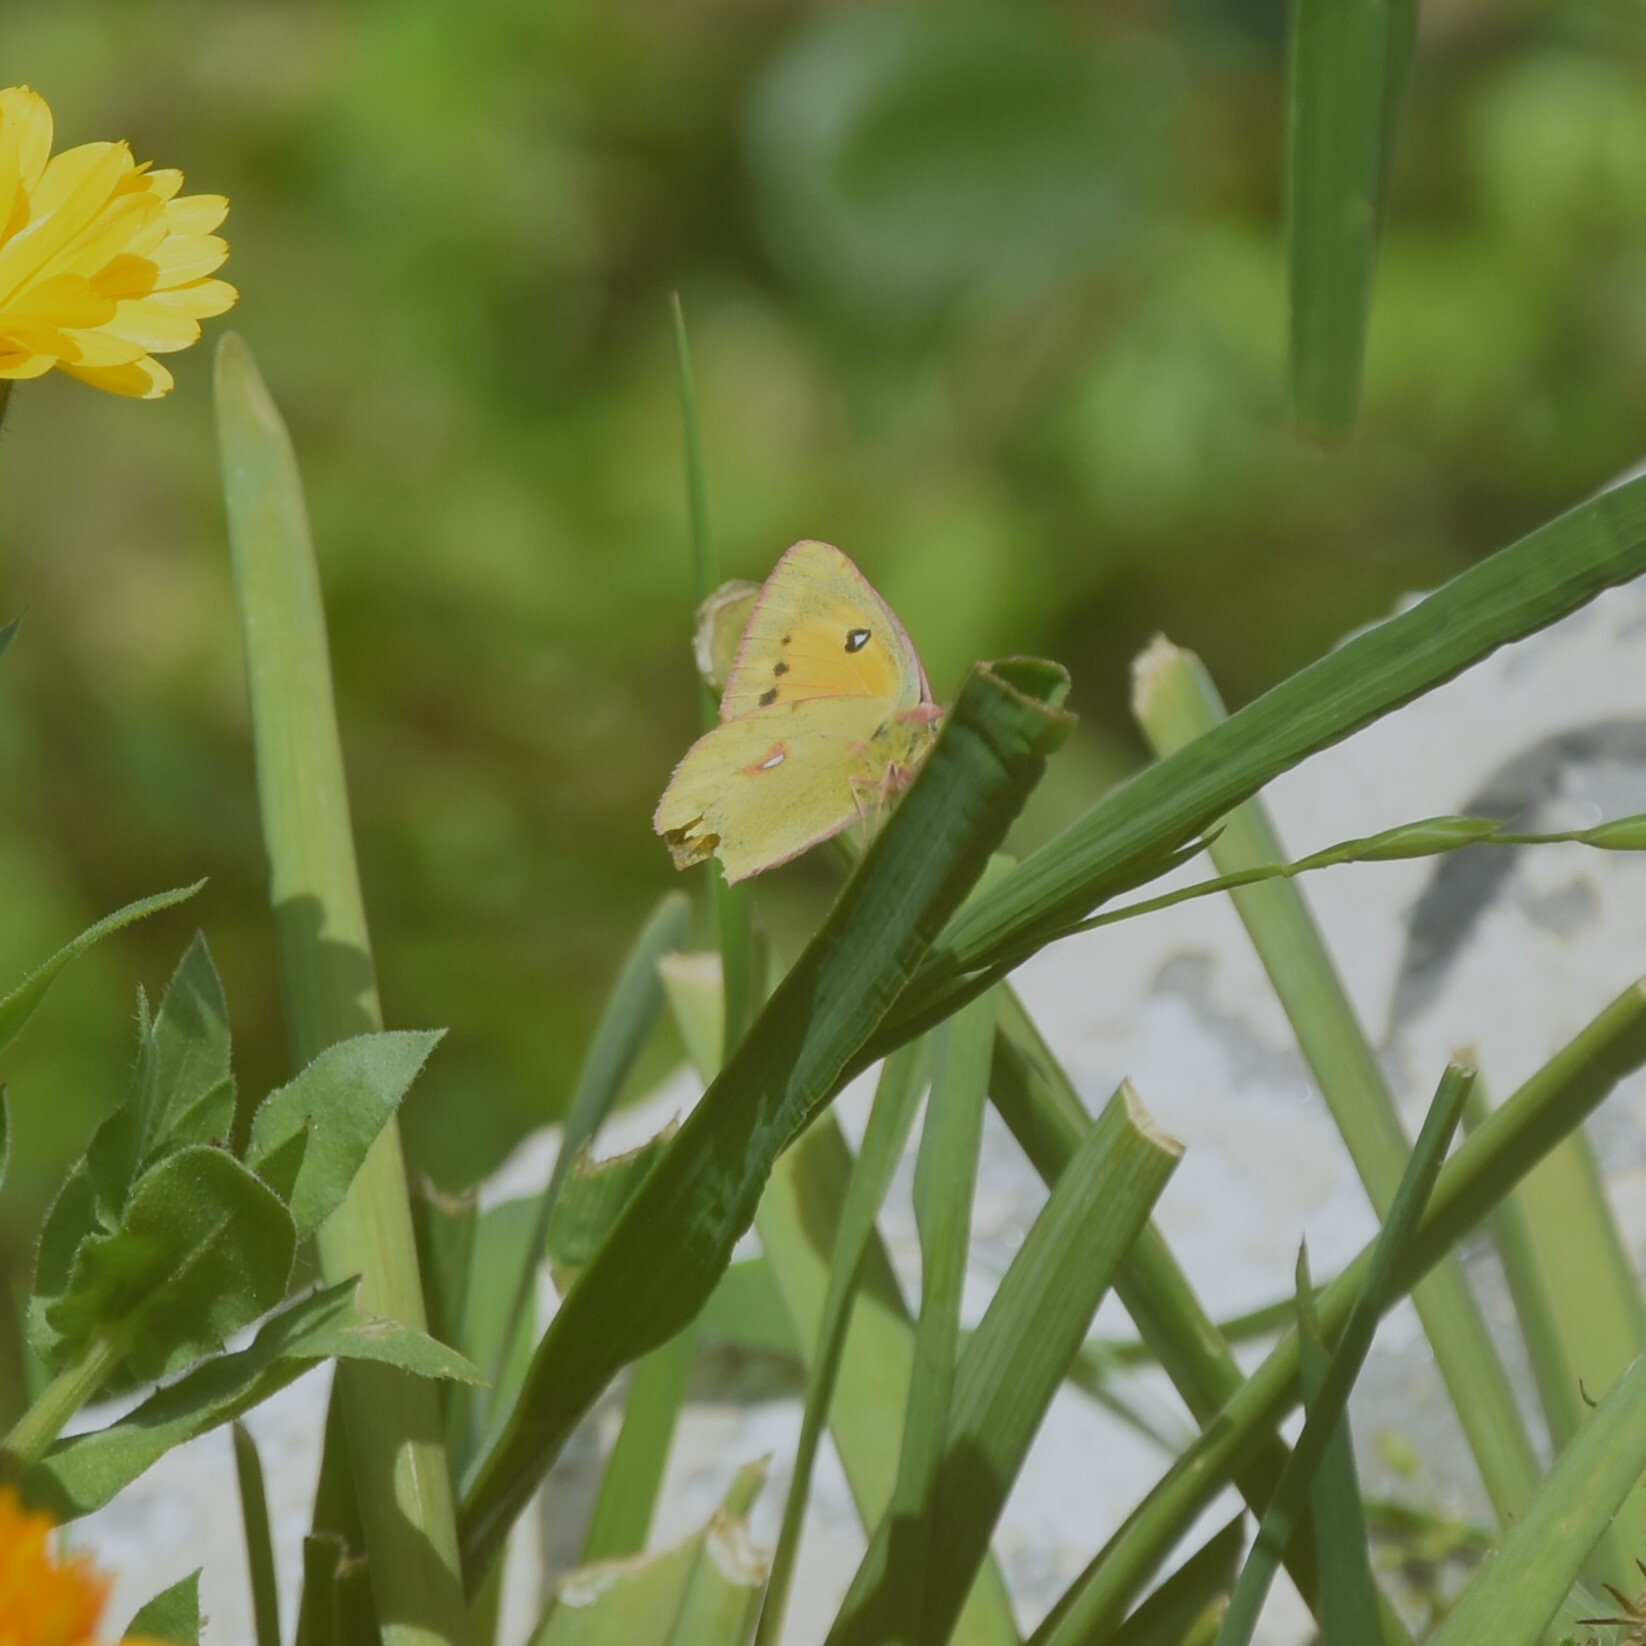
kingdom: Animalia
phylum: Arthropoda
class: Insecta
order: Lepidoptera
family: Pieridae
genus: Colias
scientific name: Colias fieldii
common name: Dark clouded yellow
